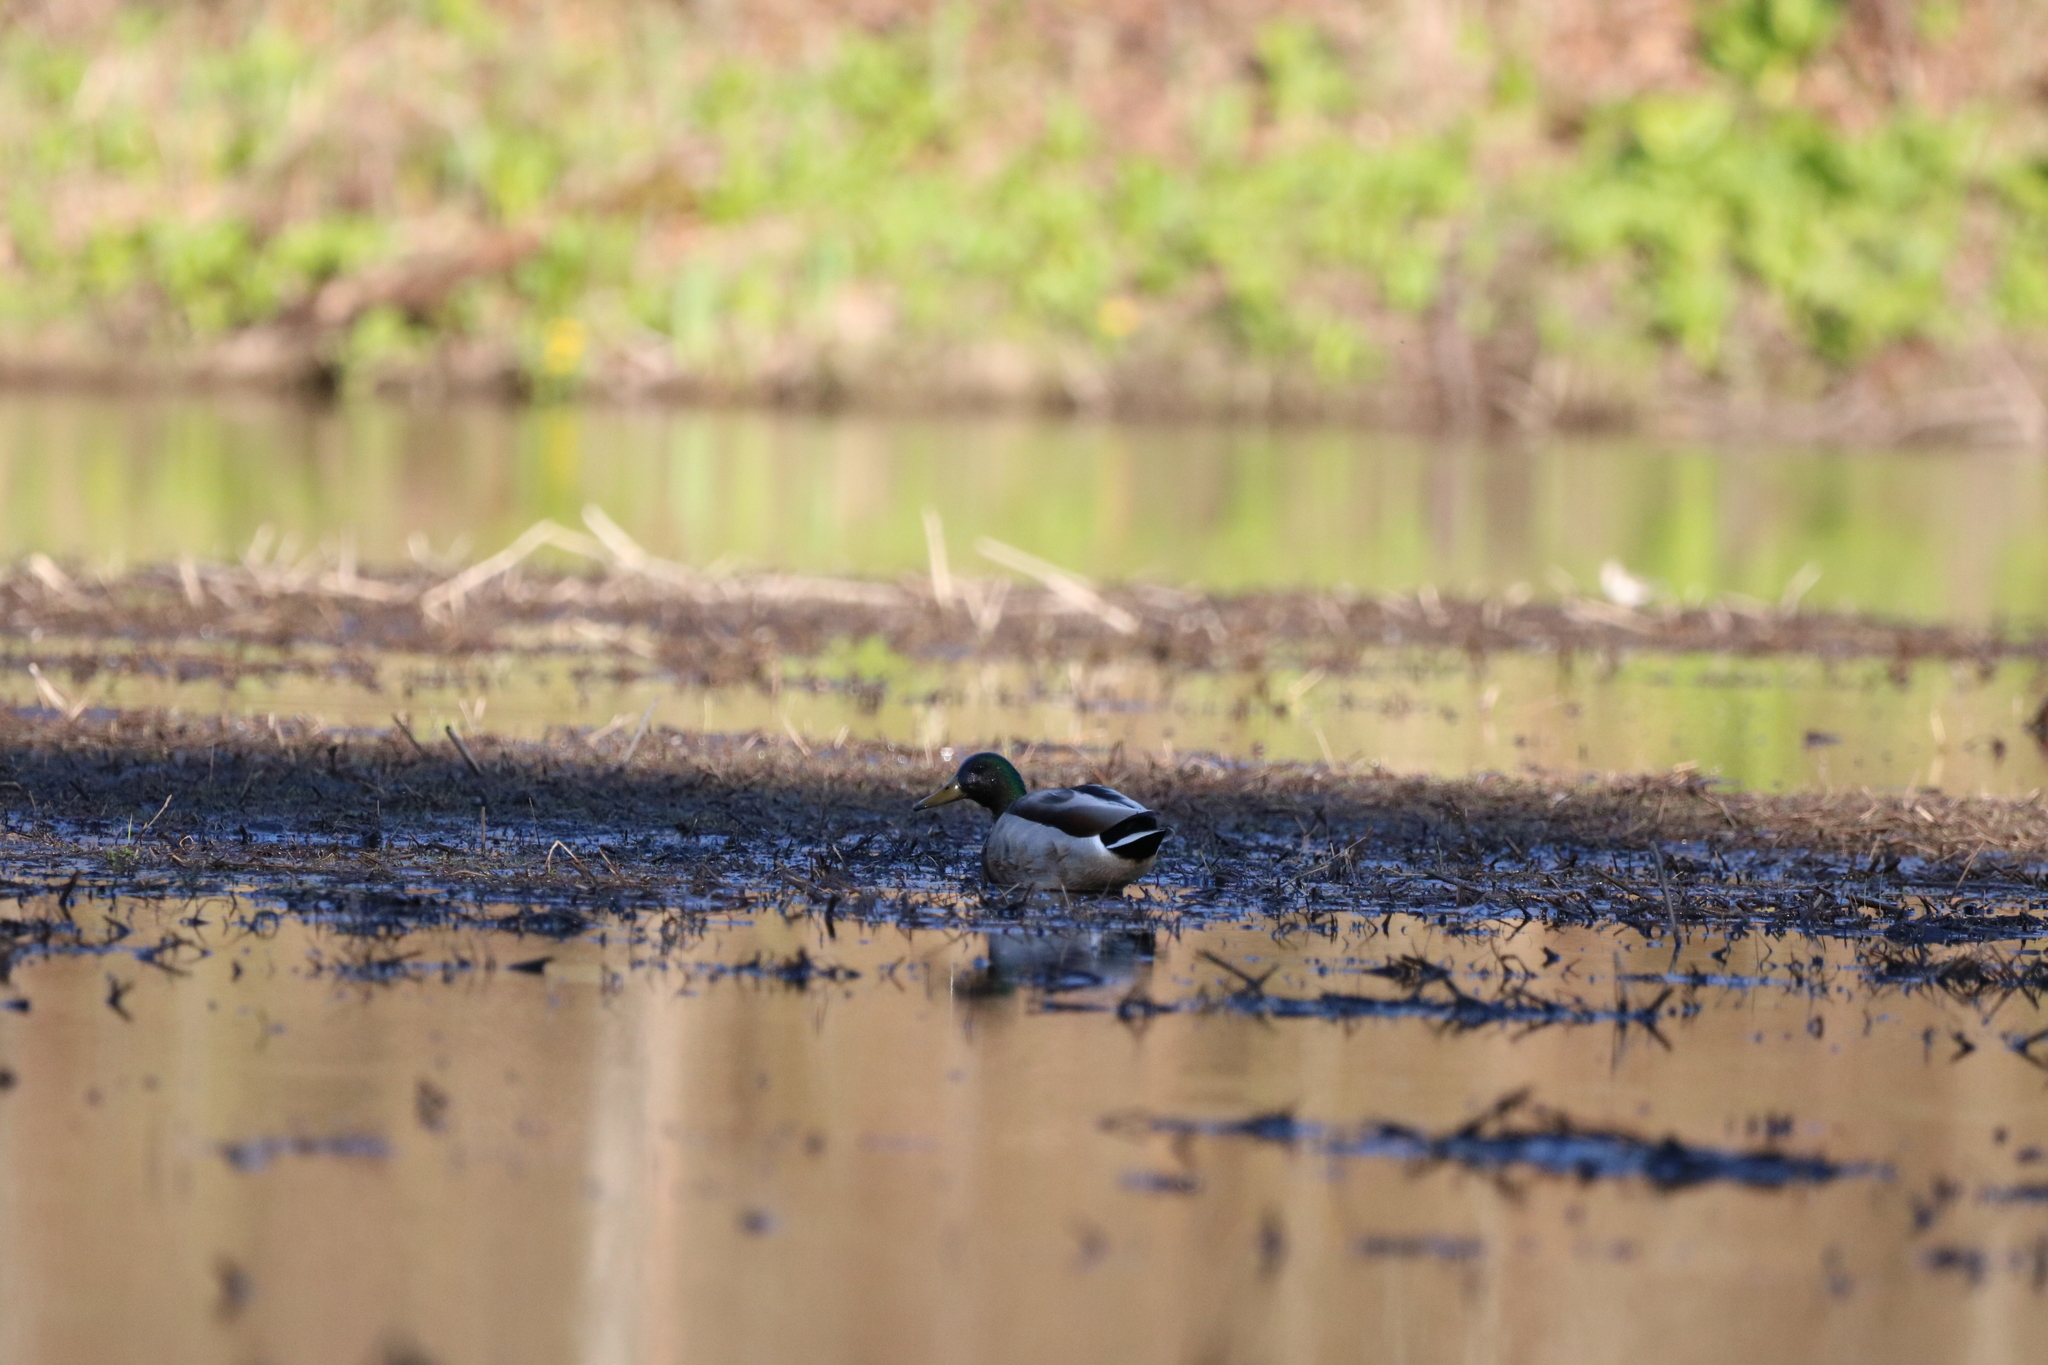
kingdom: Animalia
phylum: Chordata
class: Aves
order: Anseriformes
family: Anatidae
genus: Anas
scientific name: Anas platyrhynchos
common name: Mallard
